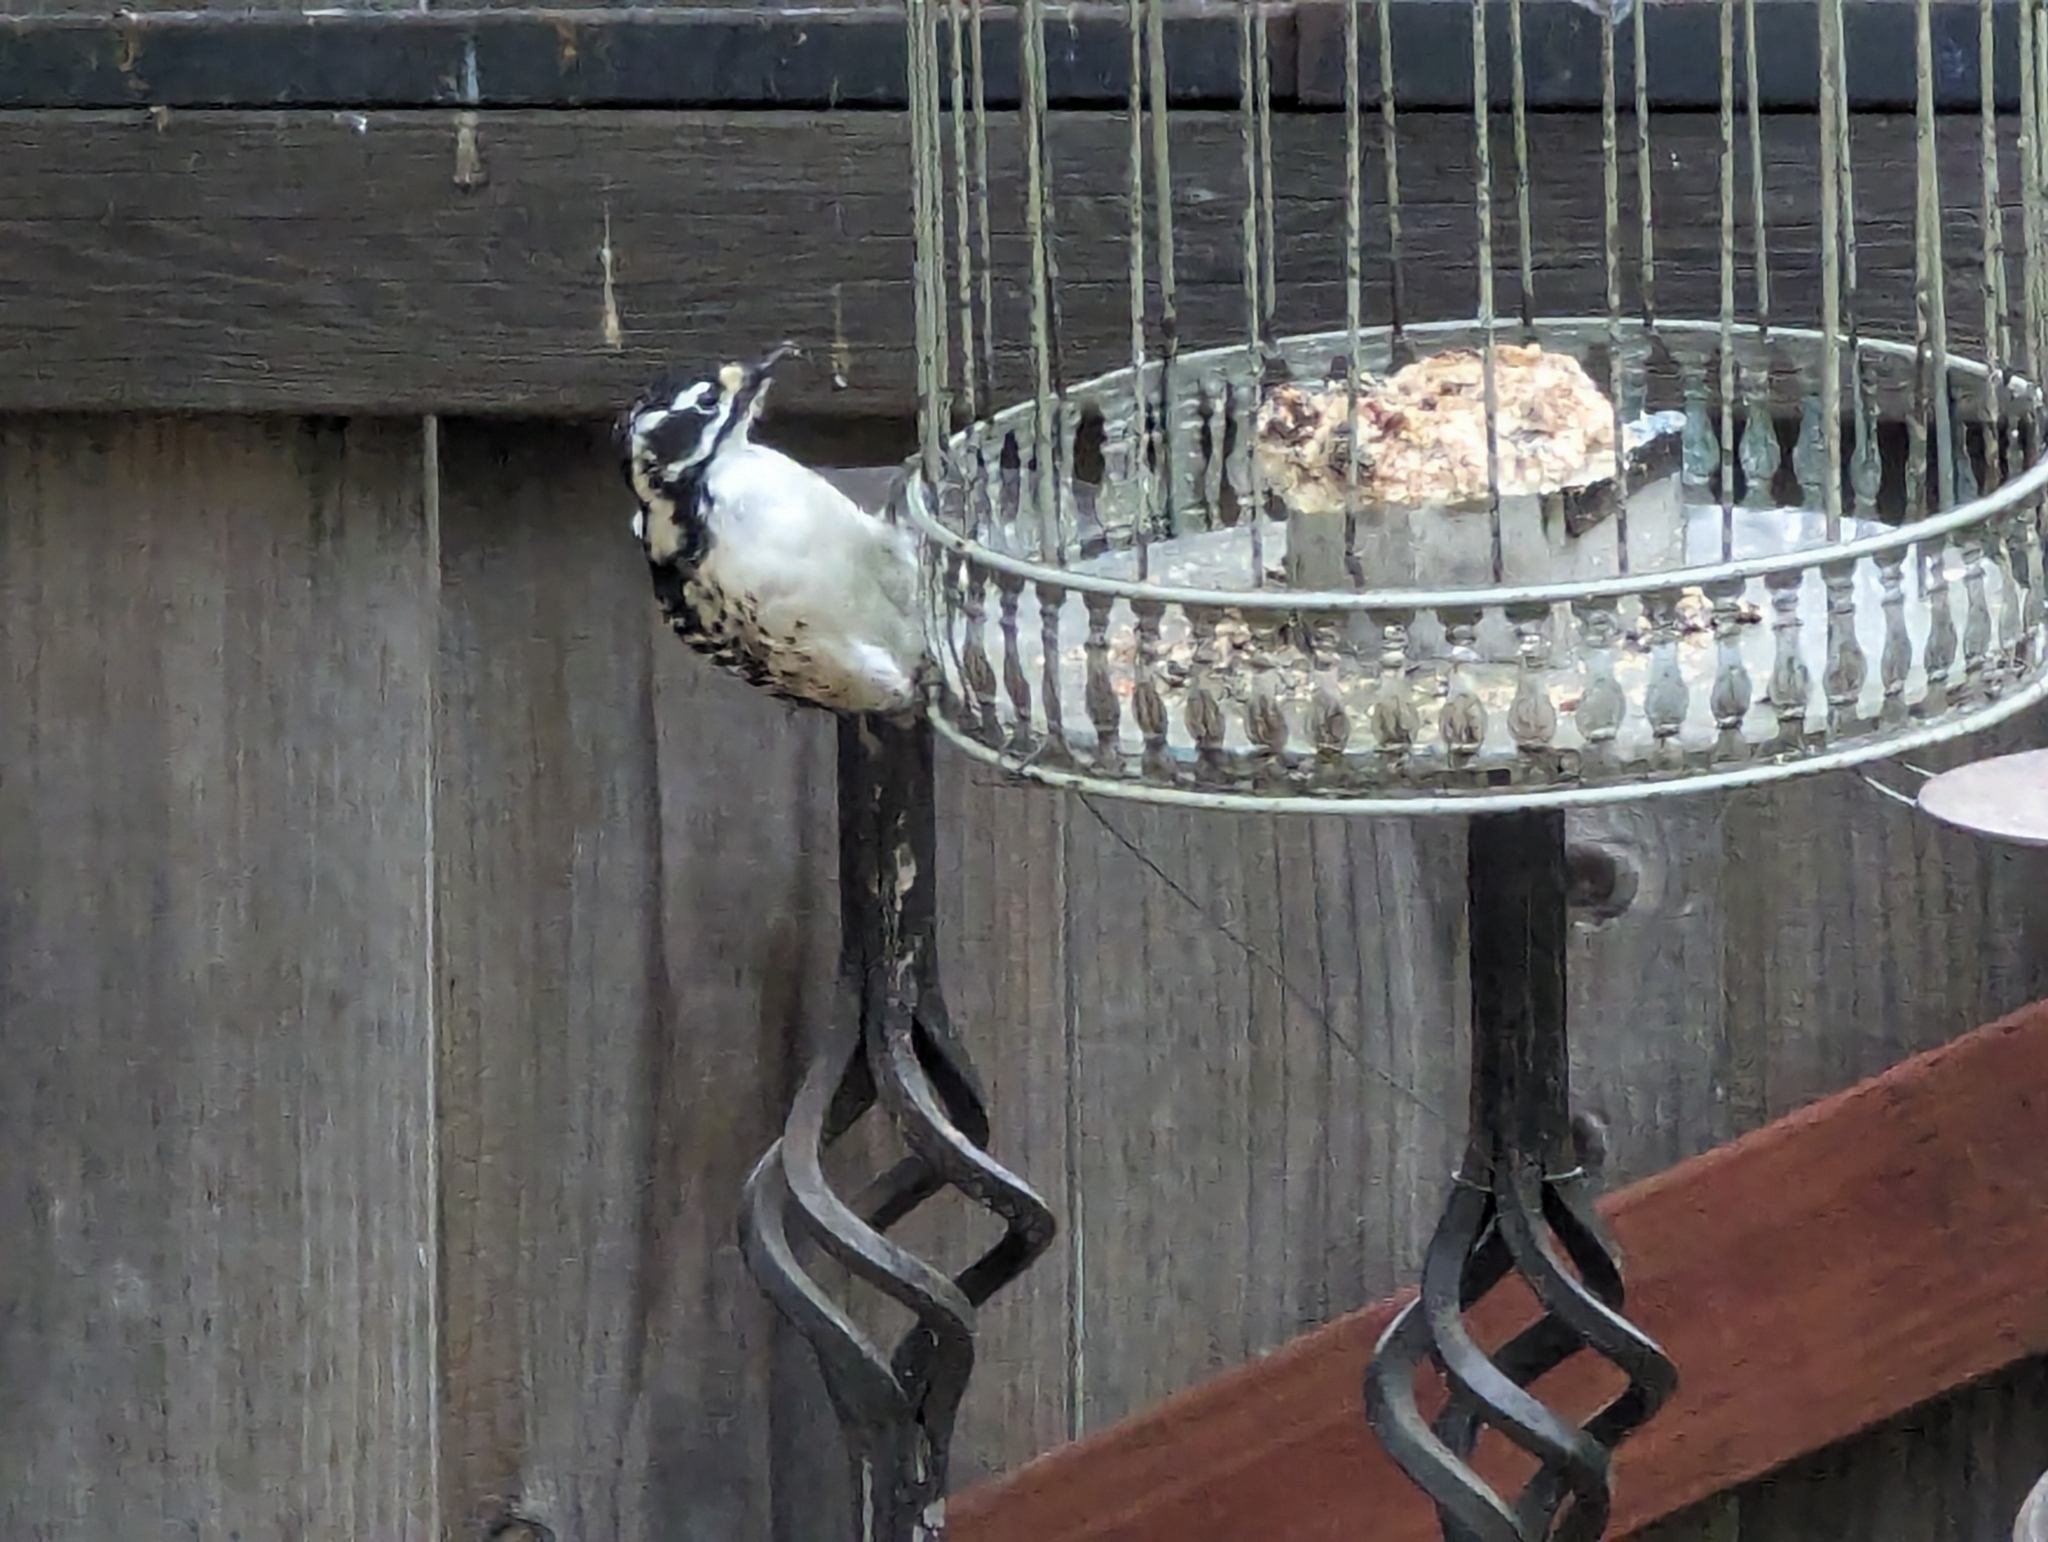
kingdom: Animalia
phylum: Chordata
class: Aves
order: Piciformes
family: Picidae
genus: Dryobates
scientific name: Dryobates nuttallii
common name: Nuttall's woodpecker
